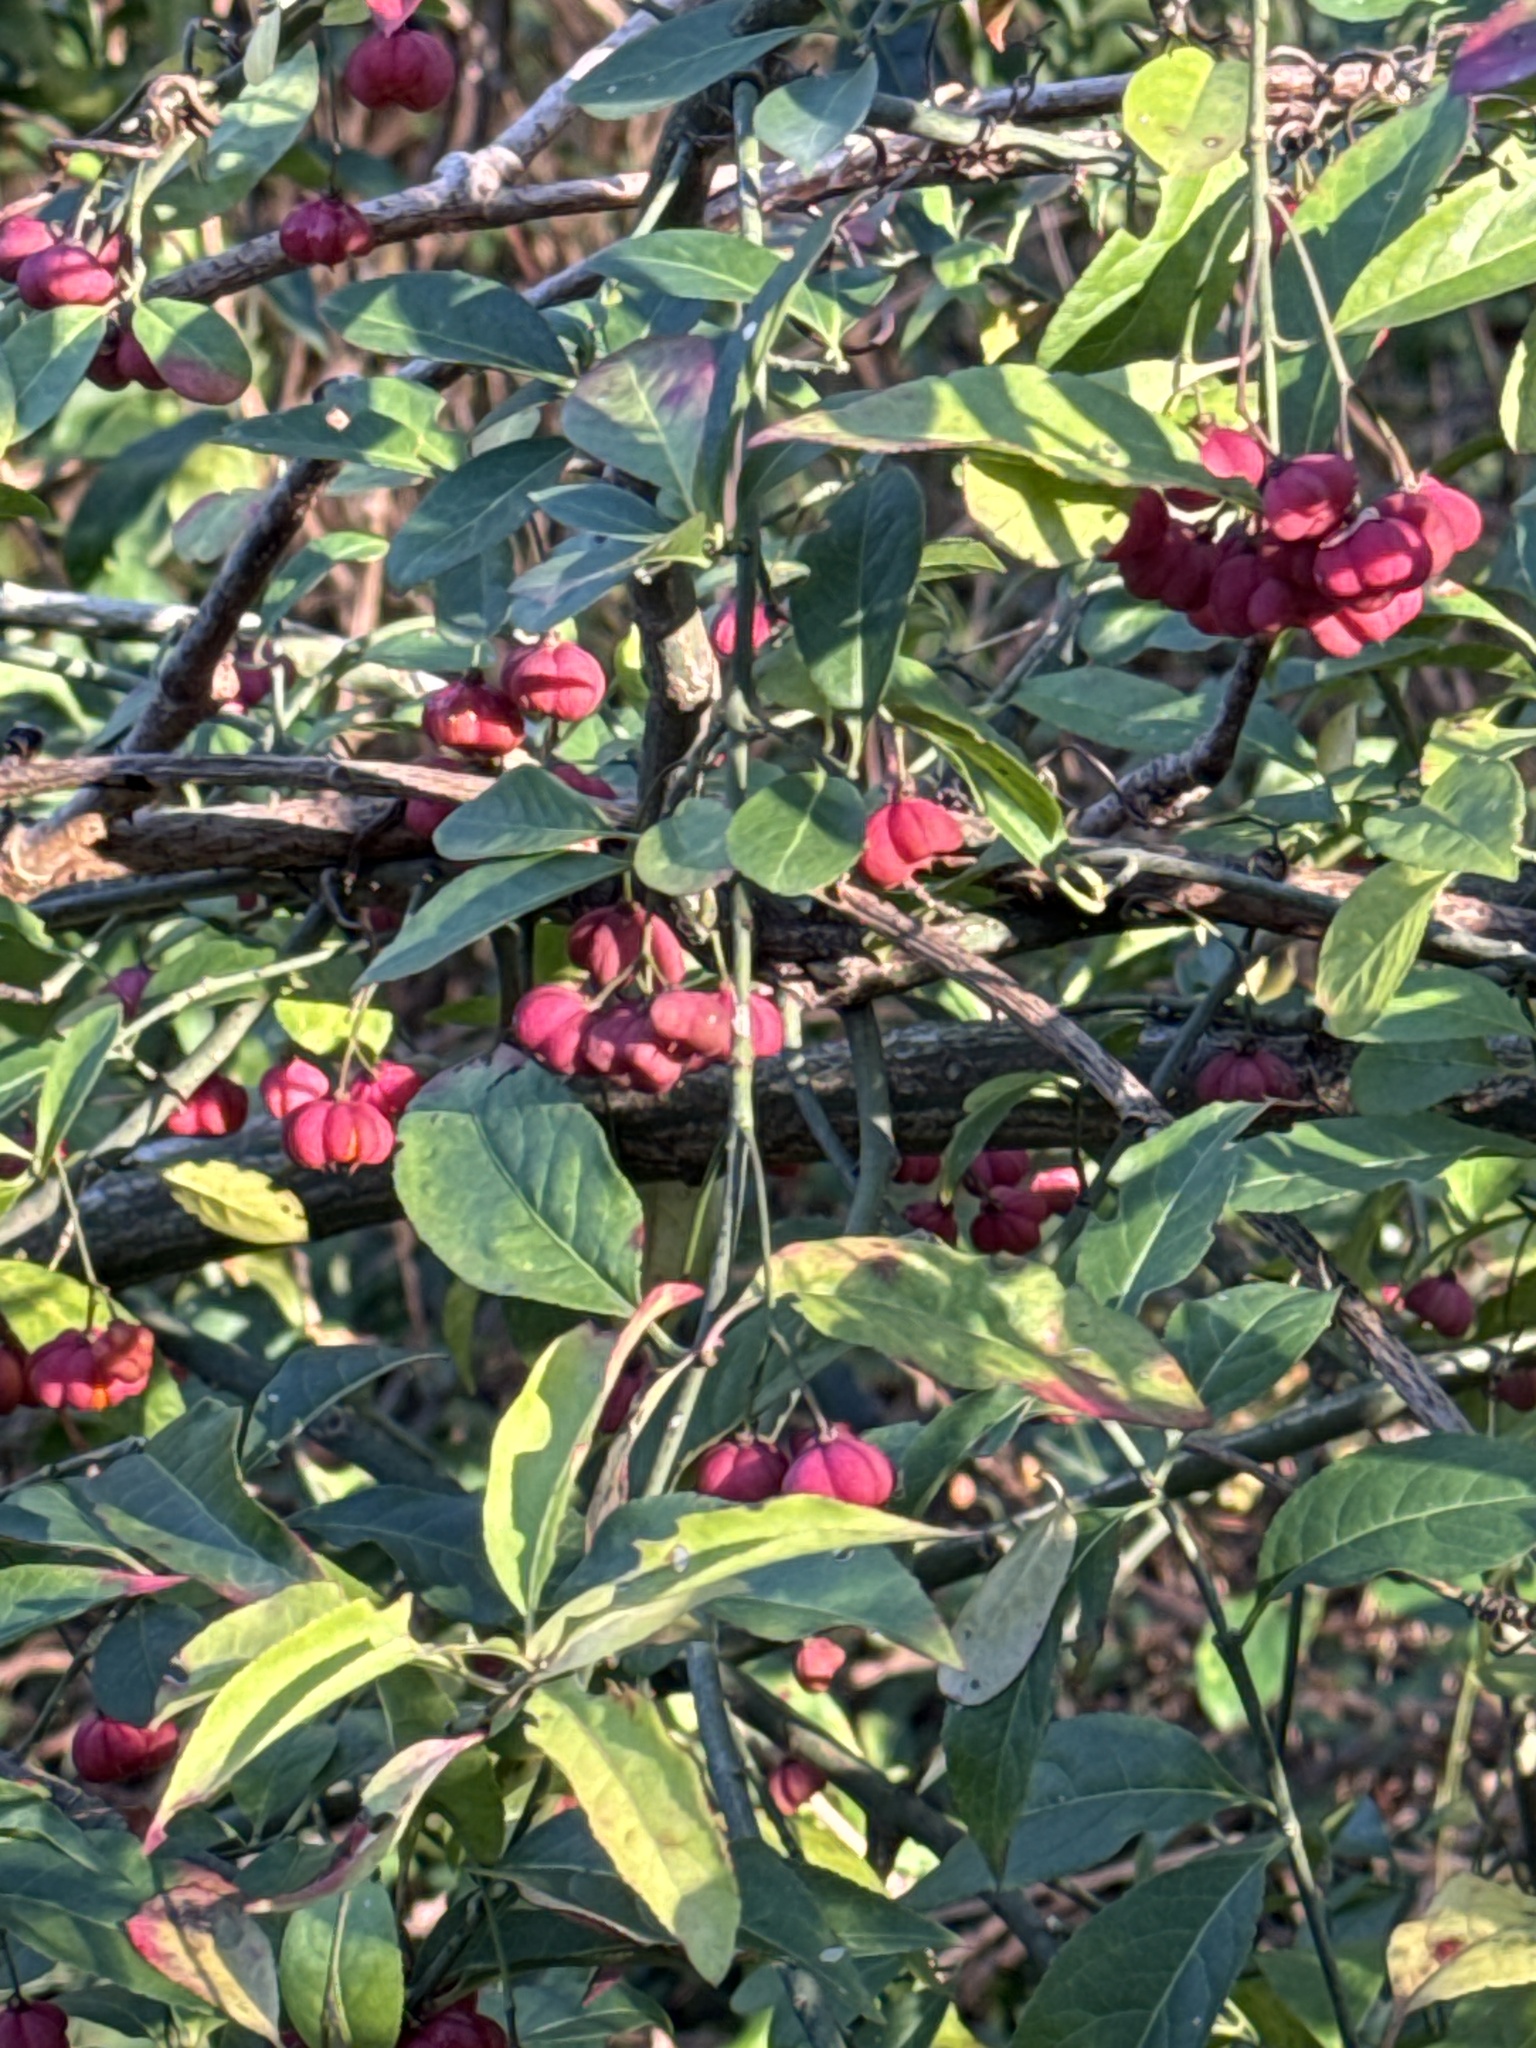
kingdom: Plantae
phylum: Tracheophyta
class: Magnoliopsida
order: Celastrales
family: Celastraceae
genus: Euonymus
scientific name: Euonymus europaeus
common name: Spindle
